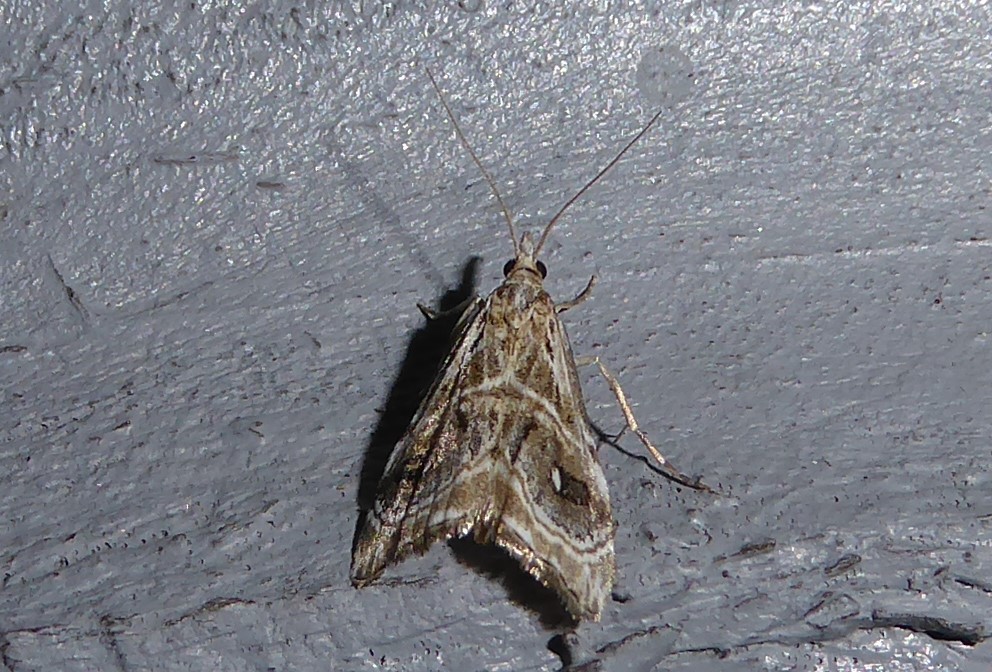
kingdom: Animalia
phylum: Arthropoda
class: Insecta
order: Lepidoptera
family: Crambidae
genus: Gadira
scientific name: Gadira acerella
